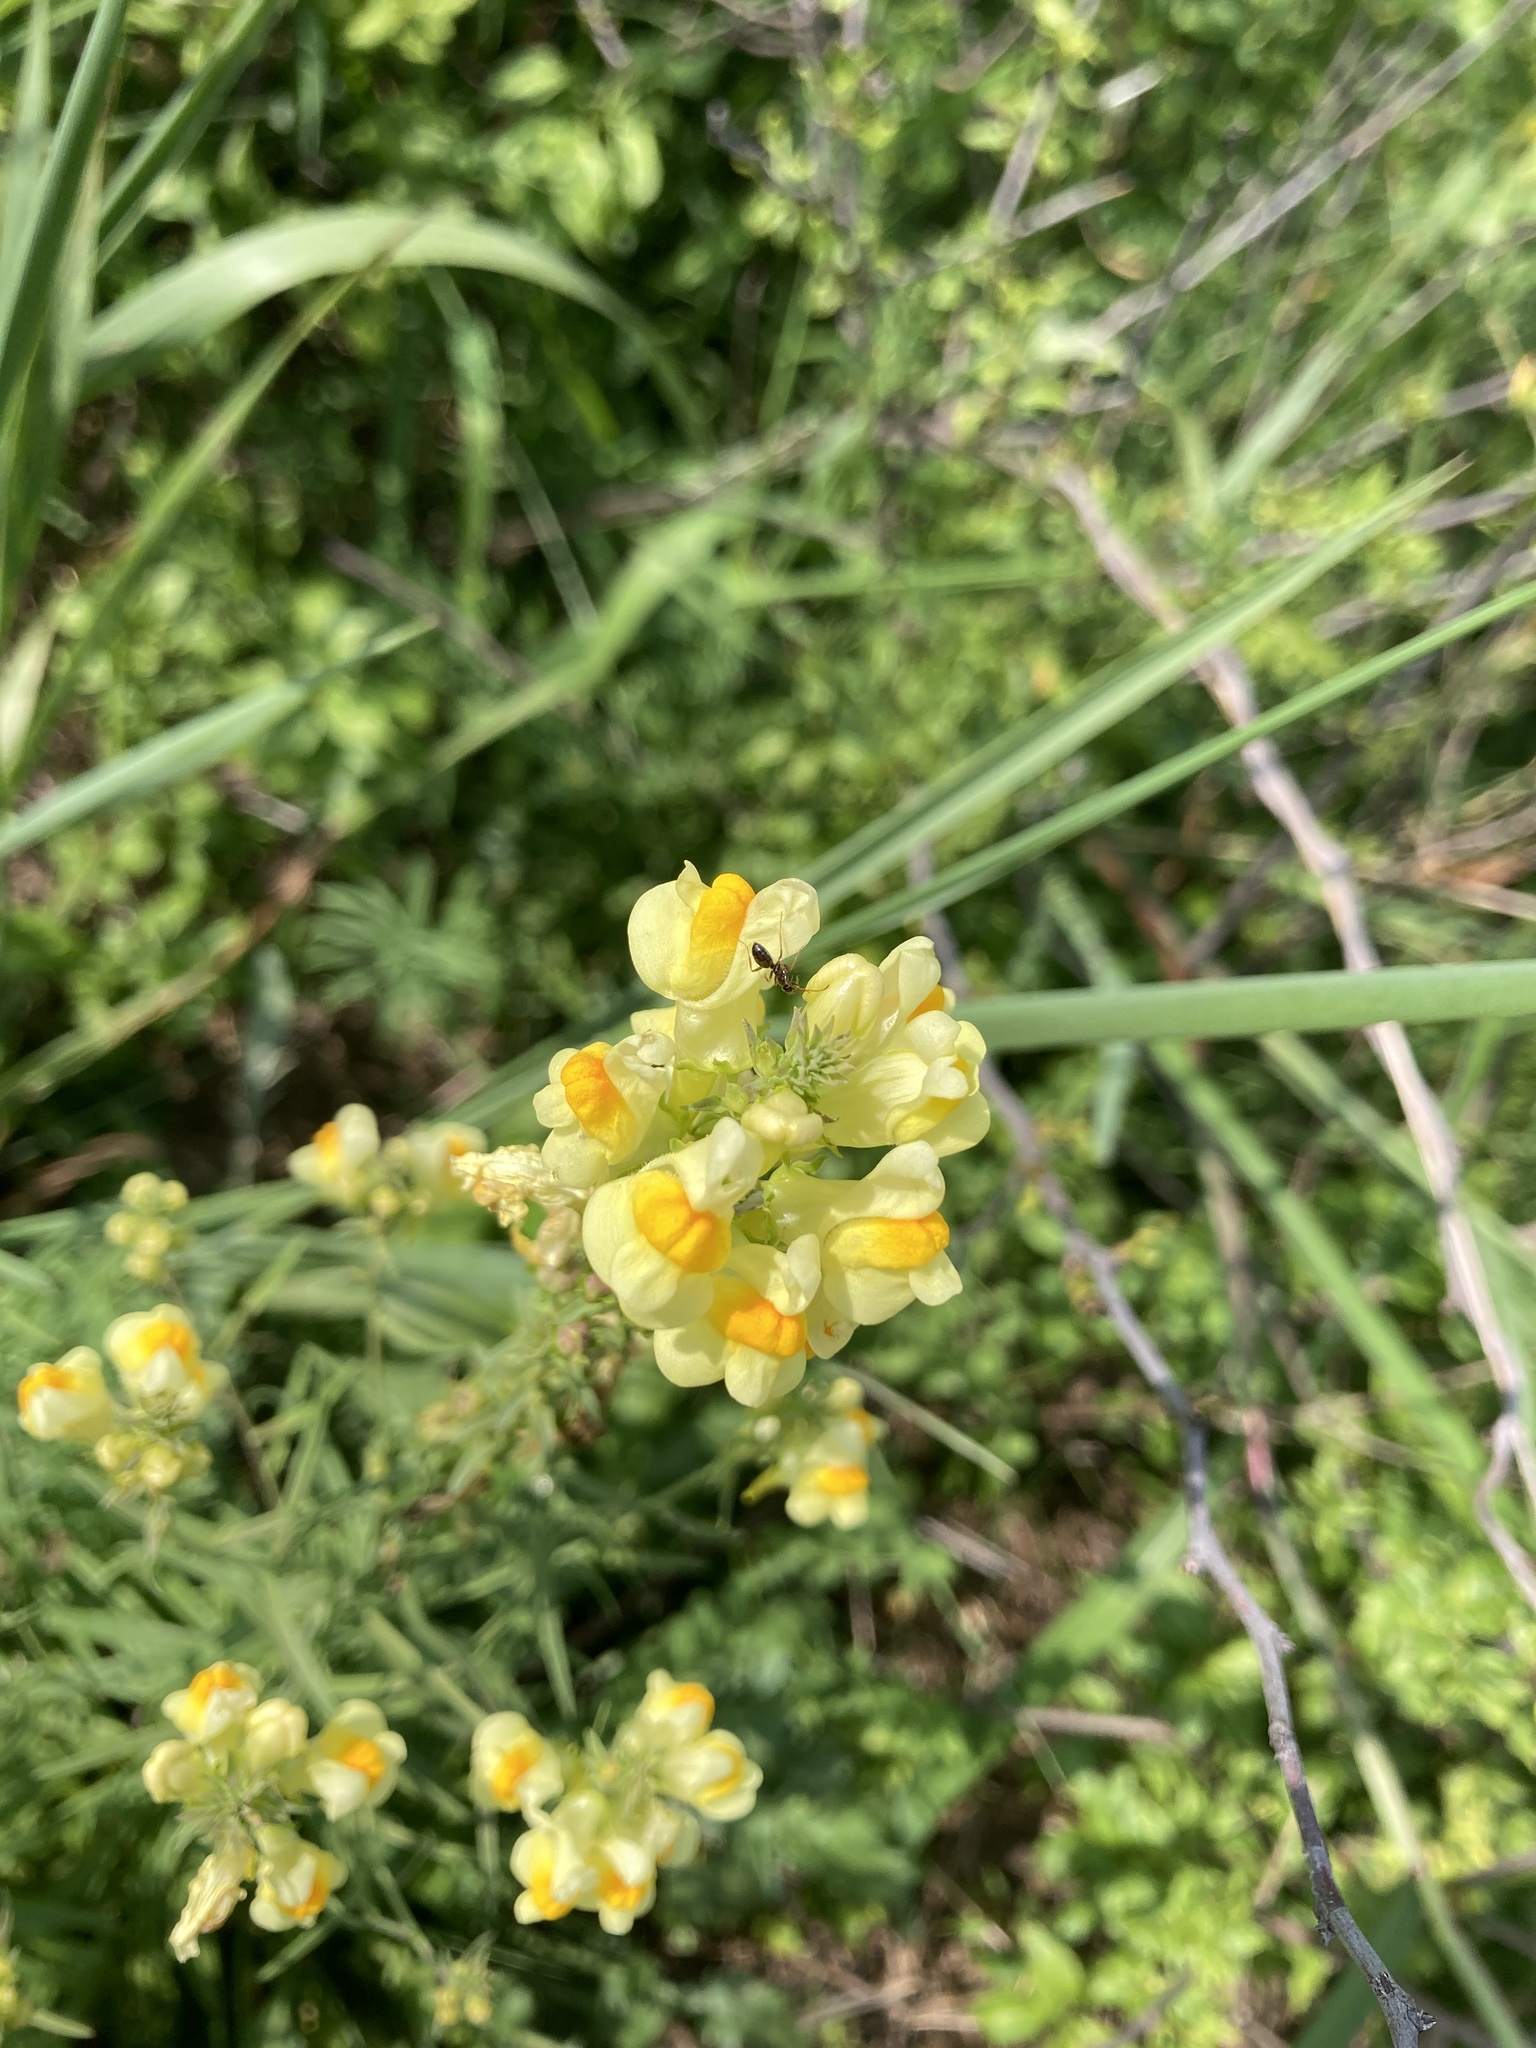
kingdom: Plantae
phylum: Tracheophyta
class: Magnoliopsida
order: Lamiales
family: Plantaginaceae
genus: Linaria
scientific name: Linaria vulgaris
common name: Butter and eggs
